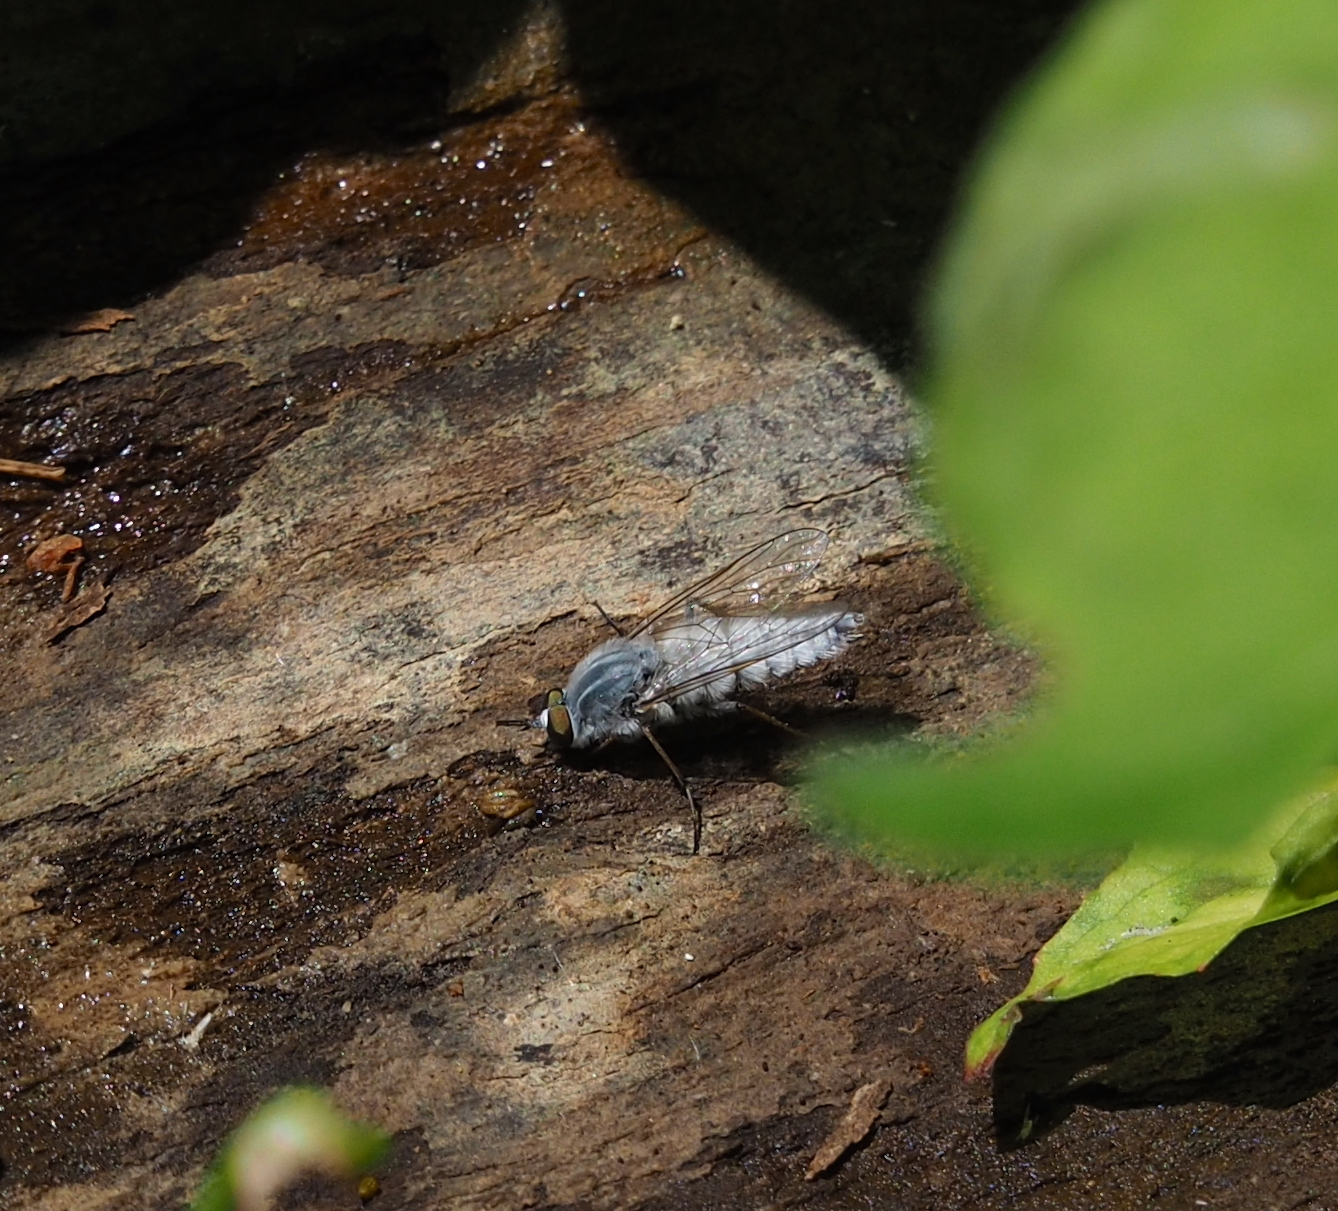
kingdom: Animalia
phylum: Arthropoda
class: Insecta
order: Diptera
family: Therevidae
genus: Pandivirilia
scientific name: Pandivirilia melaleuca
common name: Forest silver-stiletto
